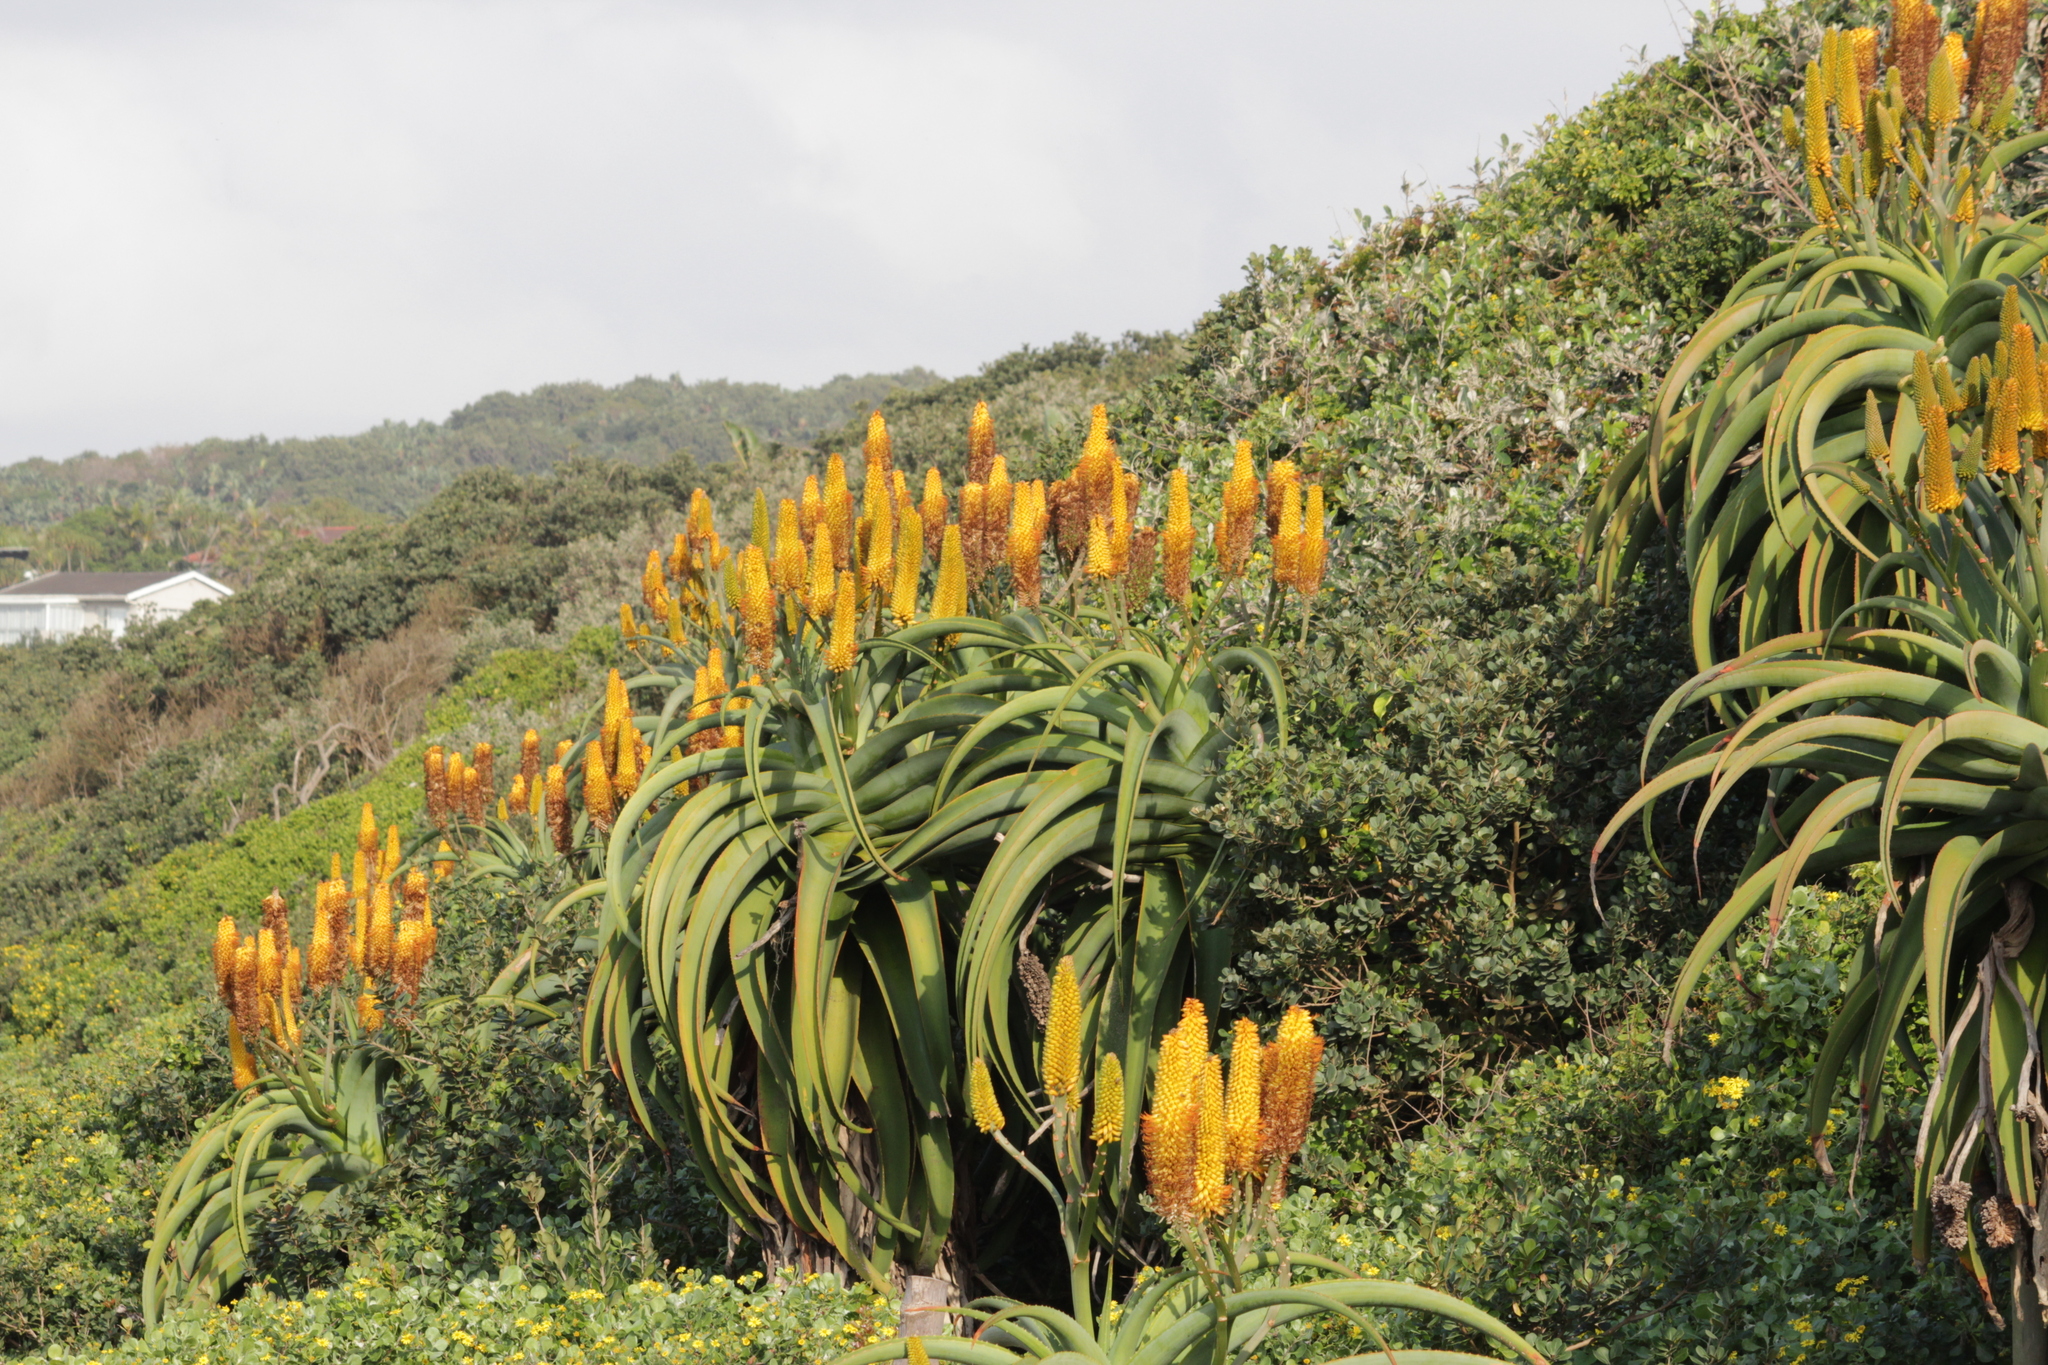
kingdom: Plantae
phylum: Tracheophyta
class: Liliopsida
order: Asparagales
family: Asphodelaceae
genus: Aloe
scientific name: Aloe thraskii
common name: Coast aloe
